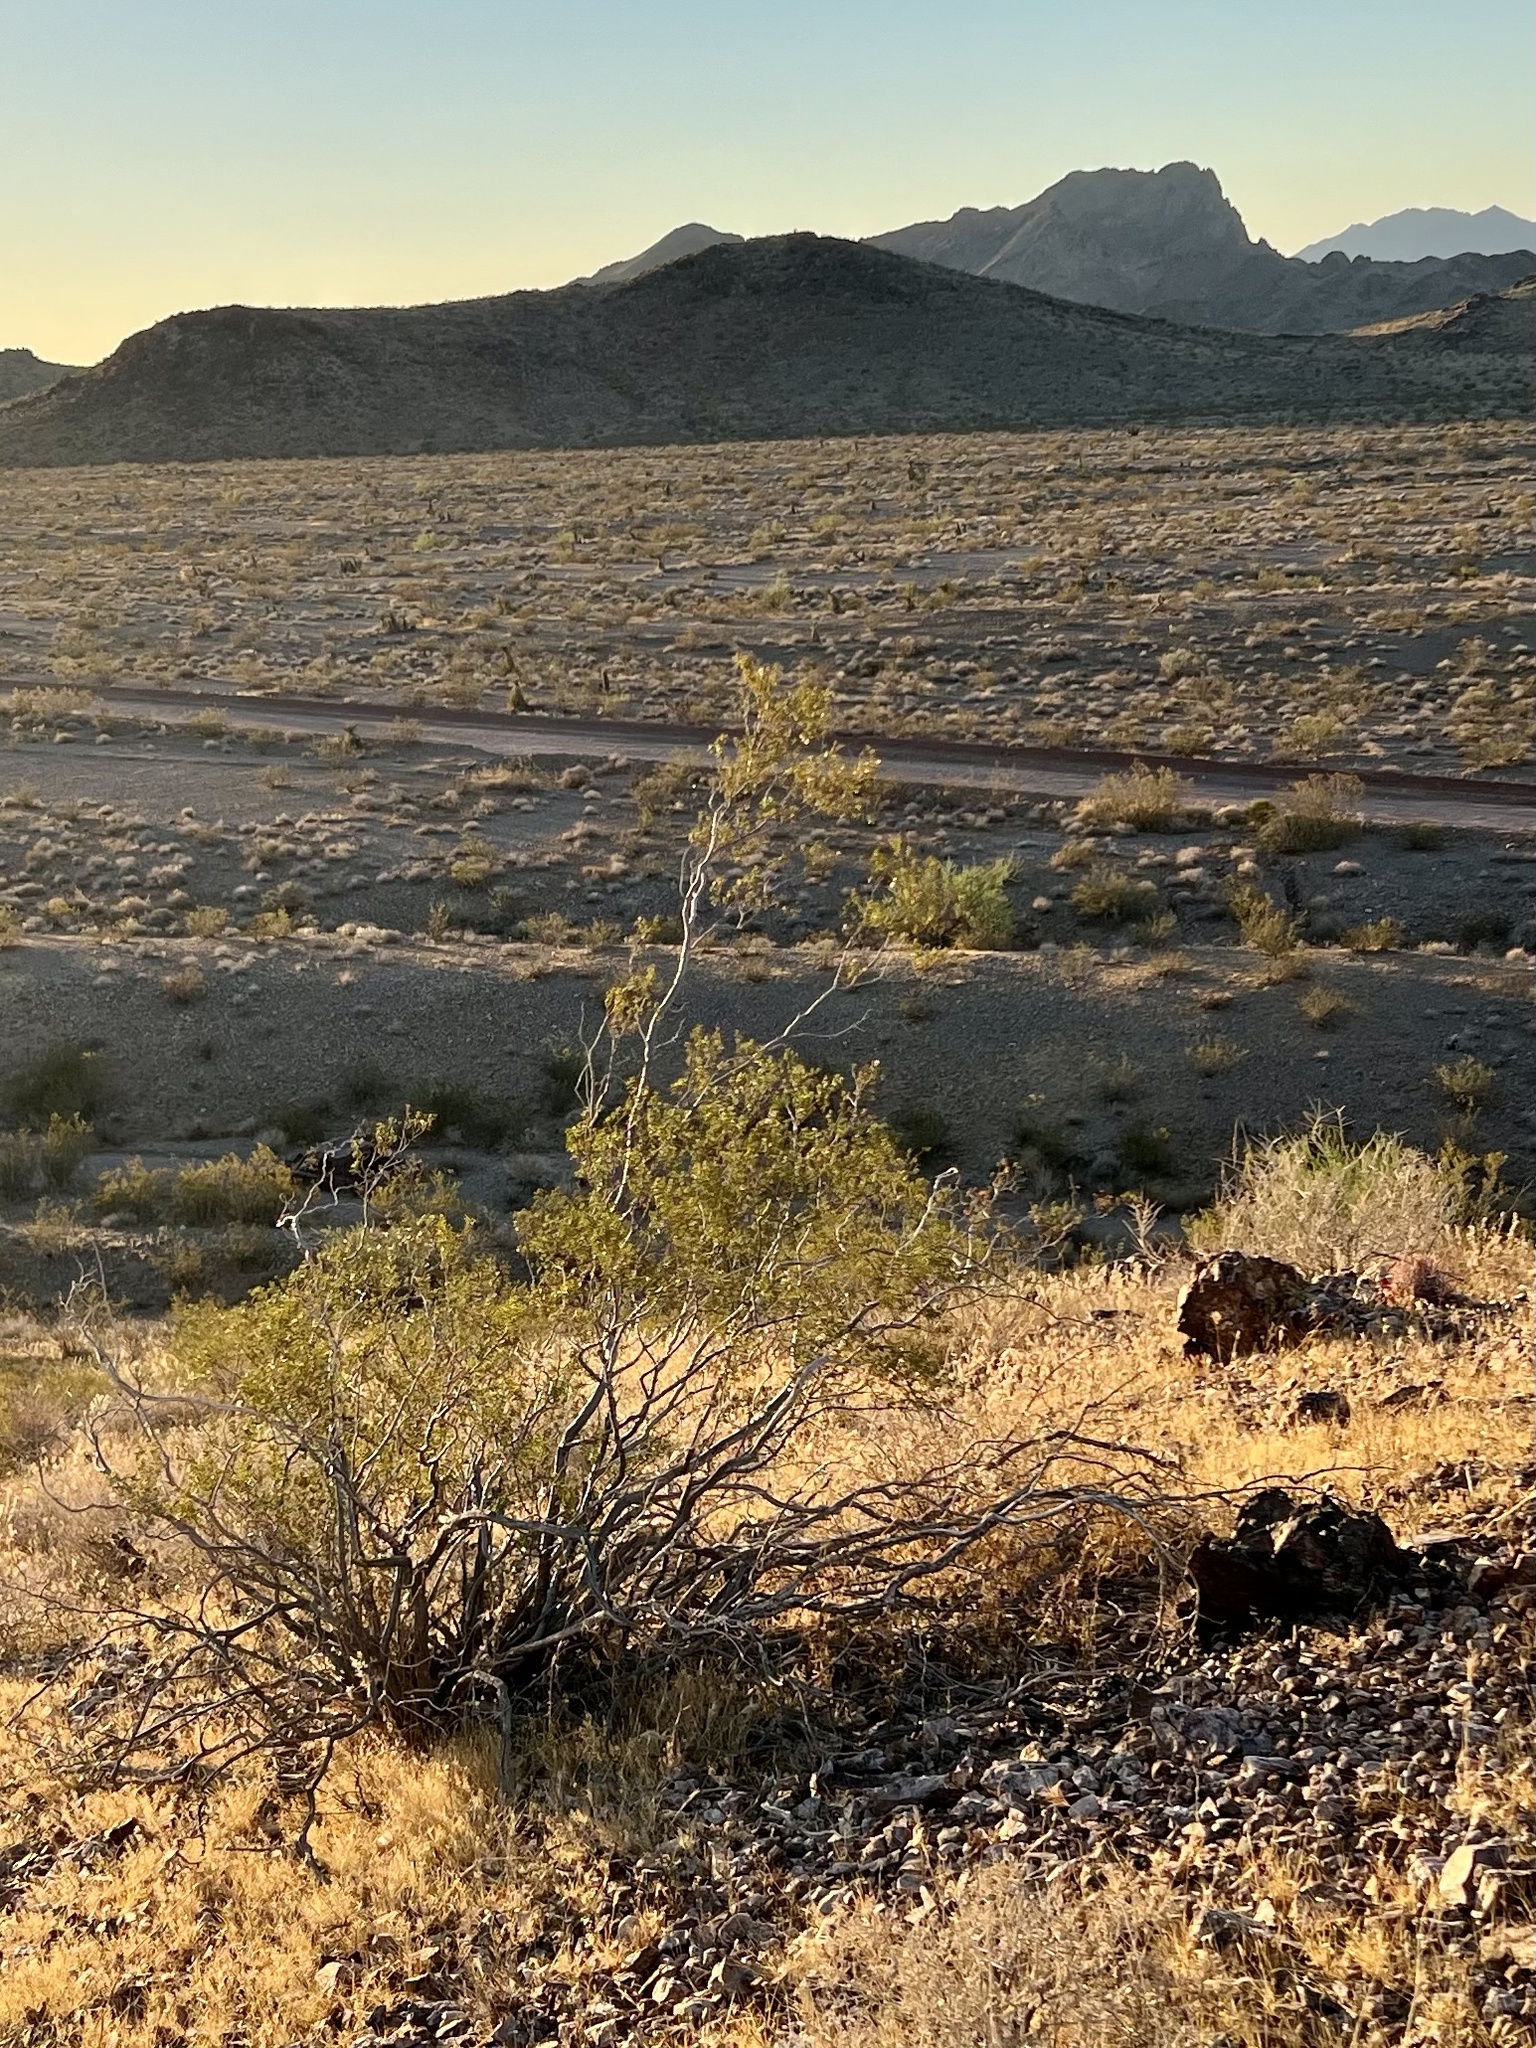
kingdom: Plantae
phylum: Tracheophyta
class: Magnoliopsida
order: Zygophyllales
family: Zygophyllaceae
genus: Larrea
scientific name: Larrea tridentata
